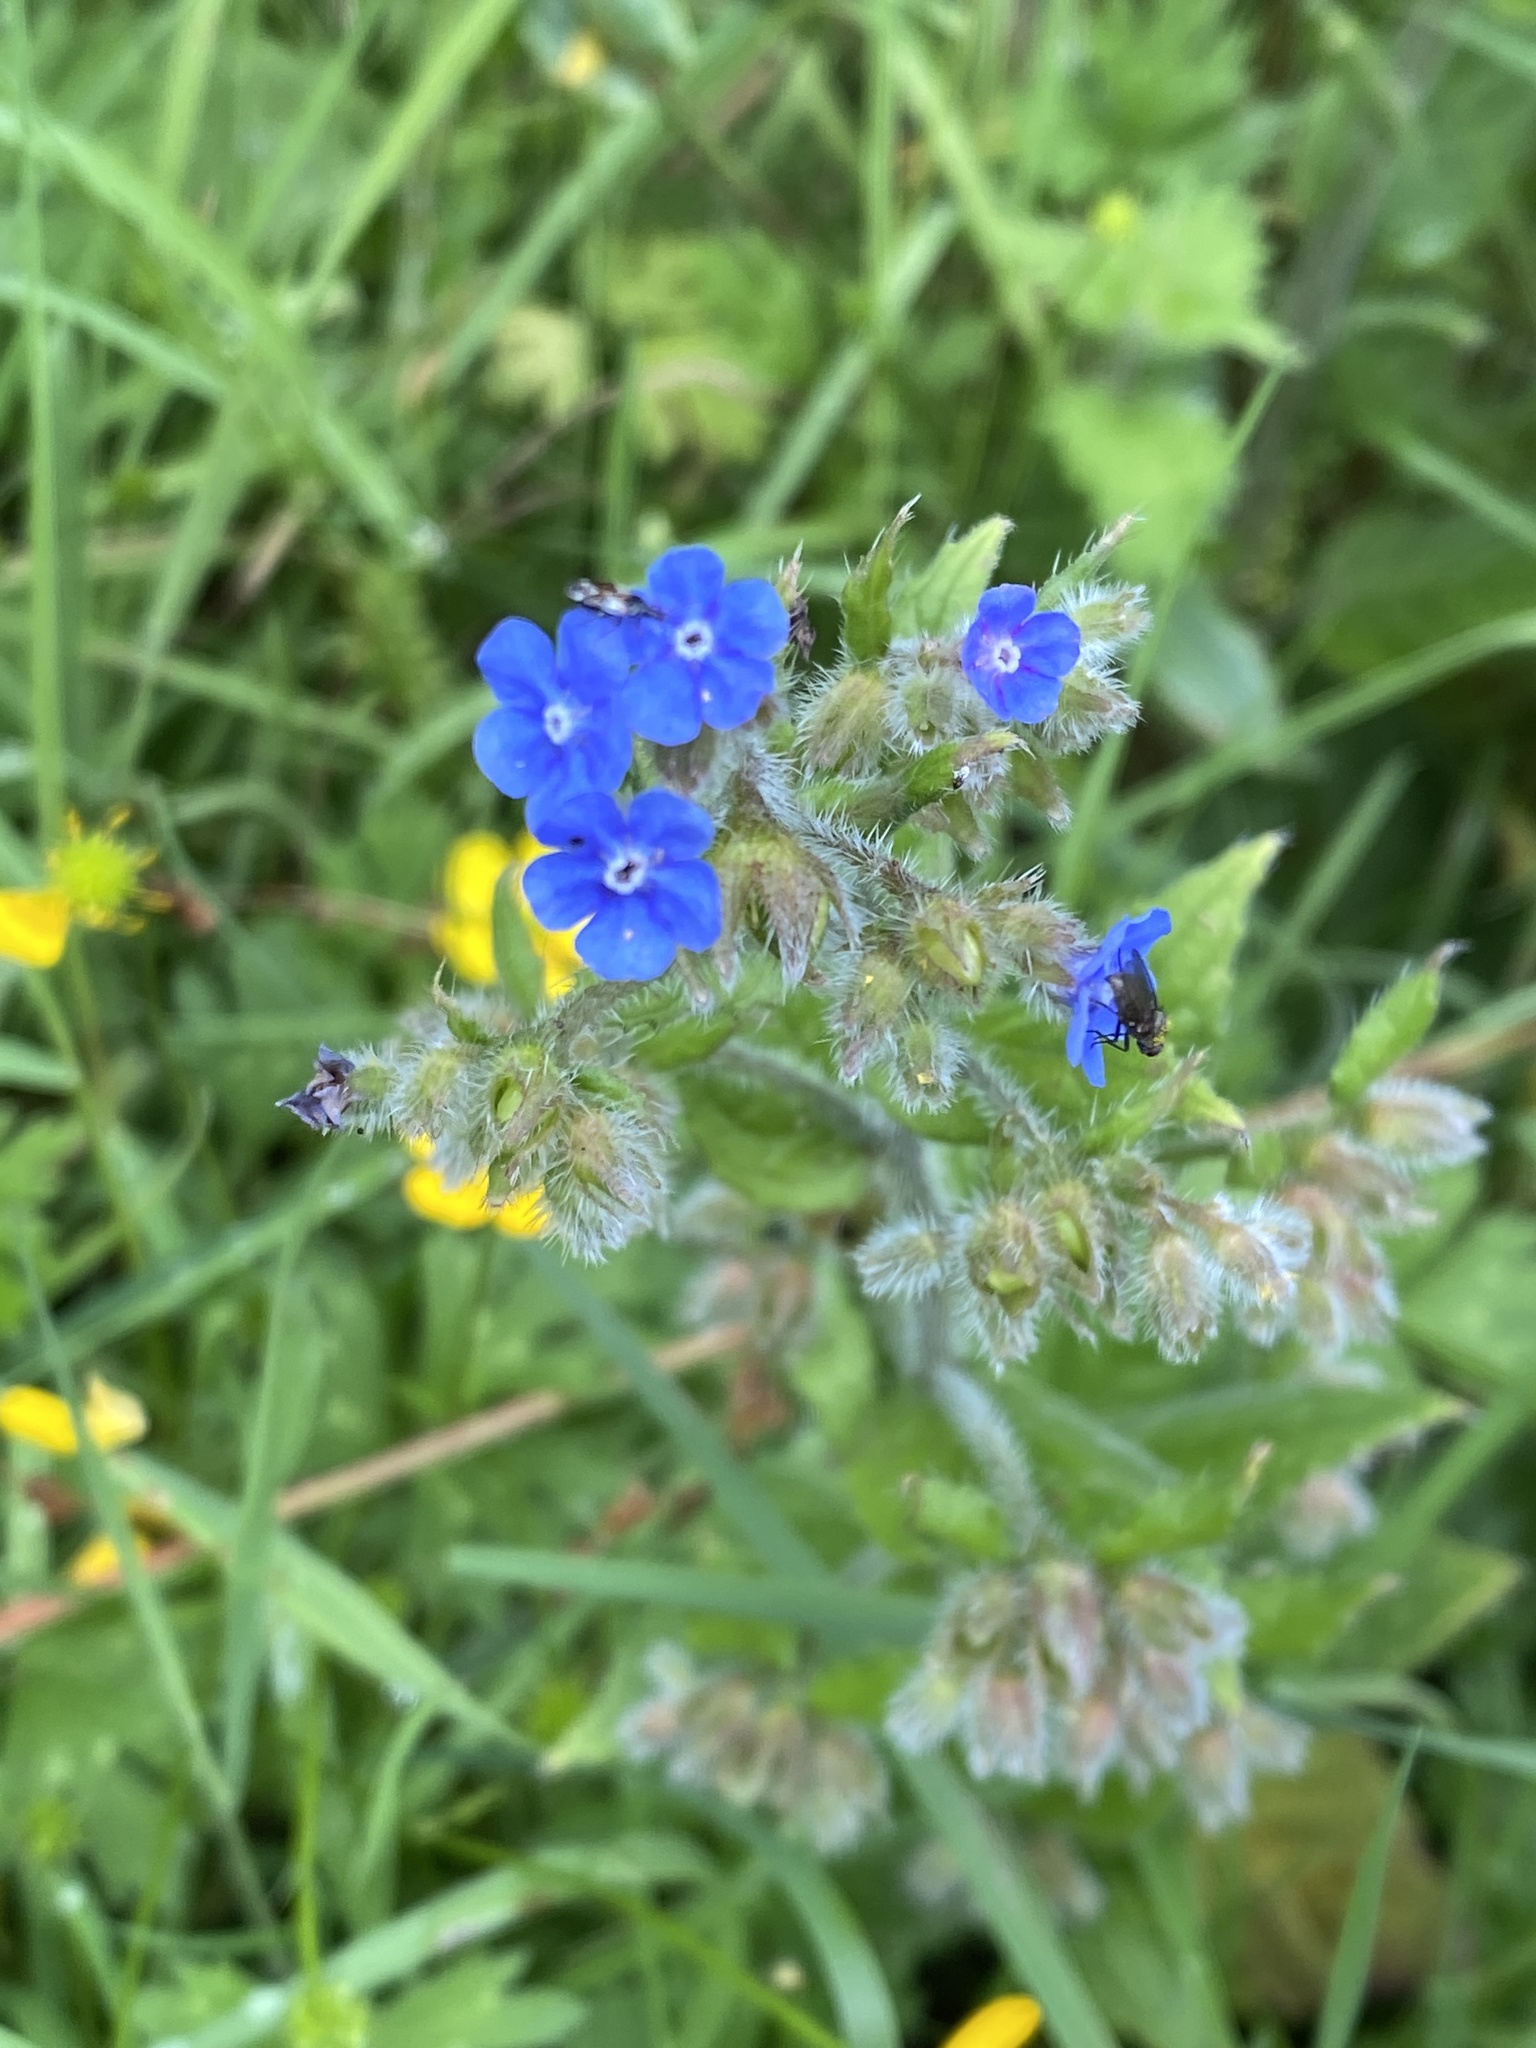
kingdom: Plantae
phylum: Tracheophyta
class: Magnoliopsida
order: Boraginales
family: Boraginaceae
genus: Pentaglottis
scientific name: Pentaglottis sempervirens
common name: Green alkanet
